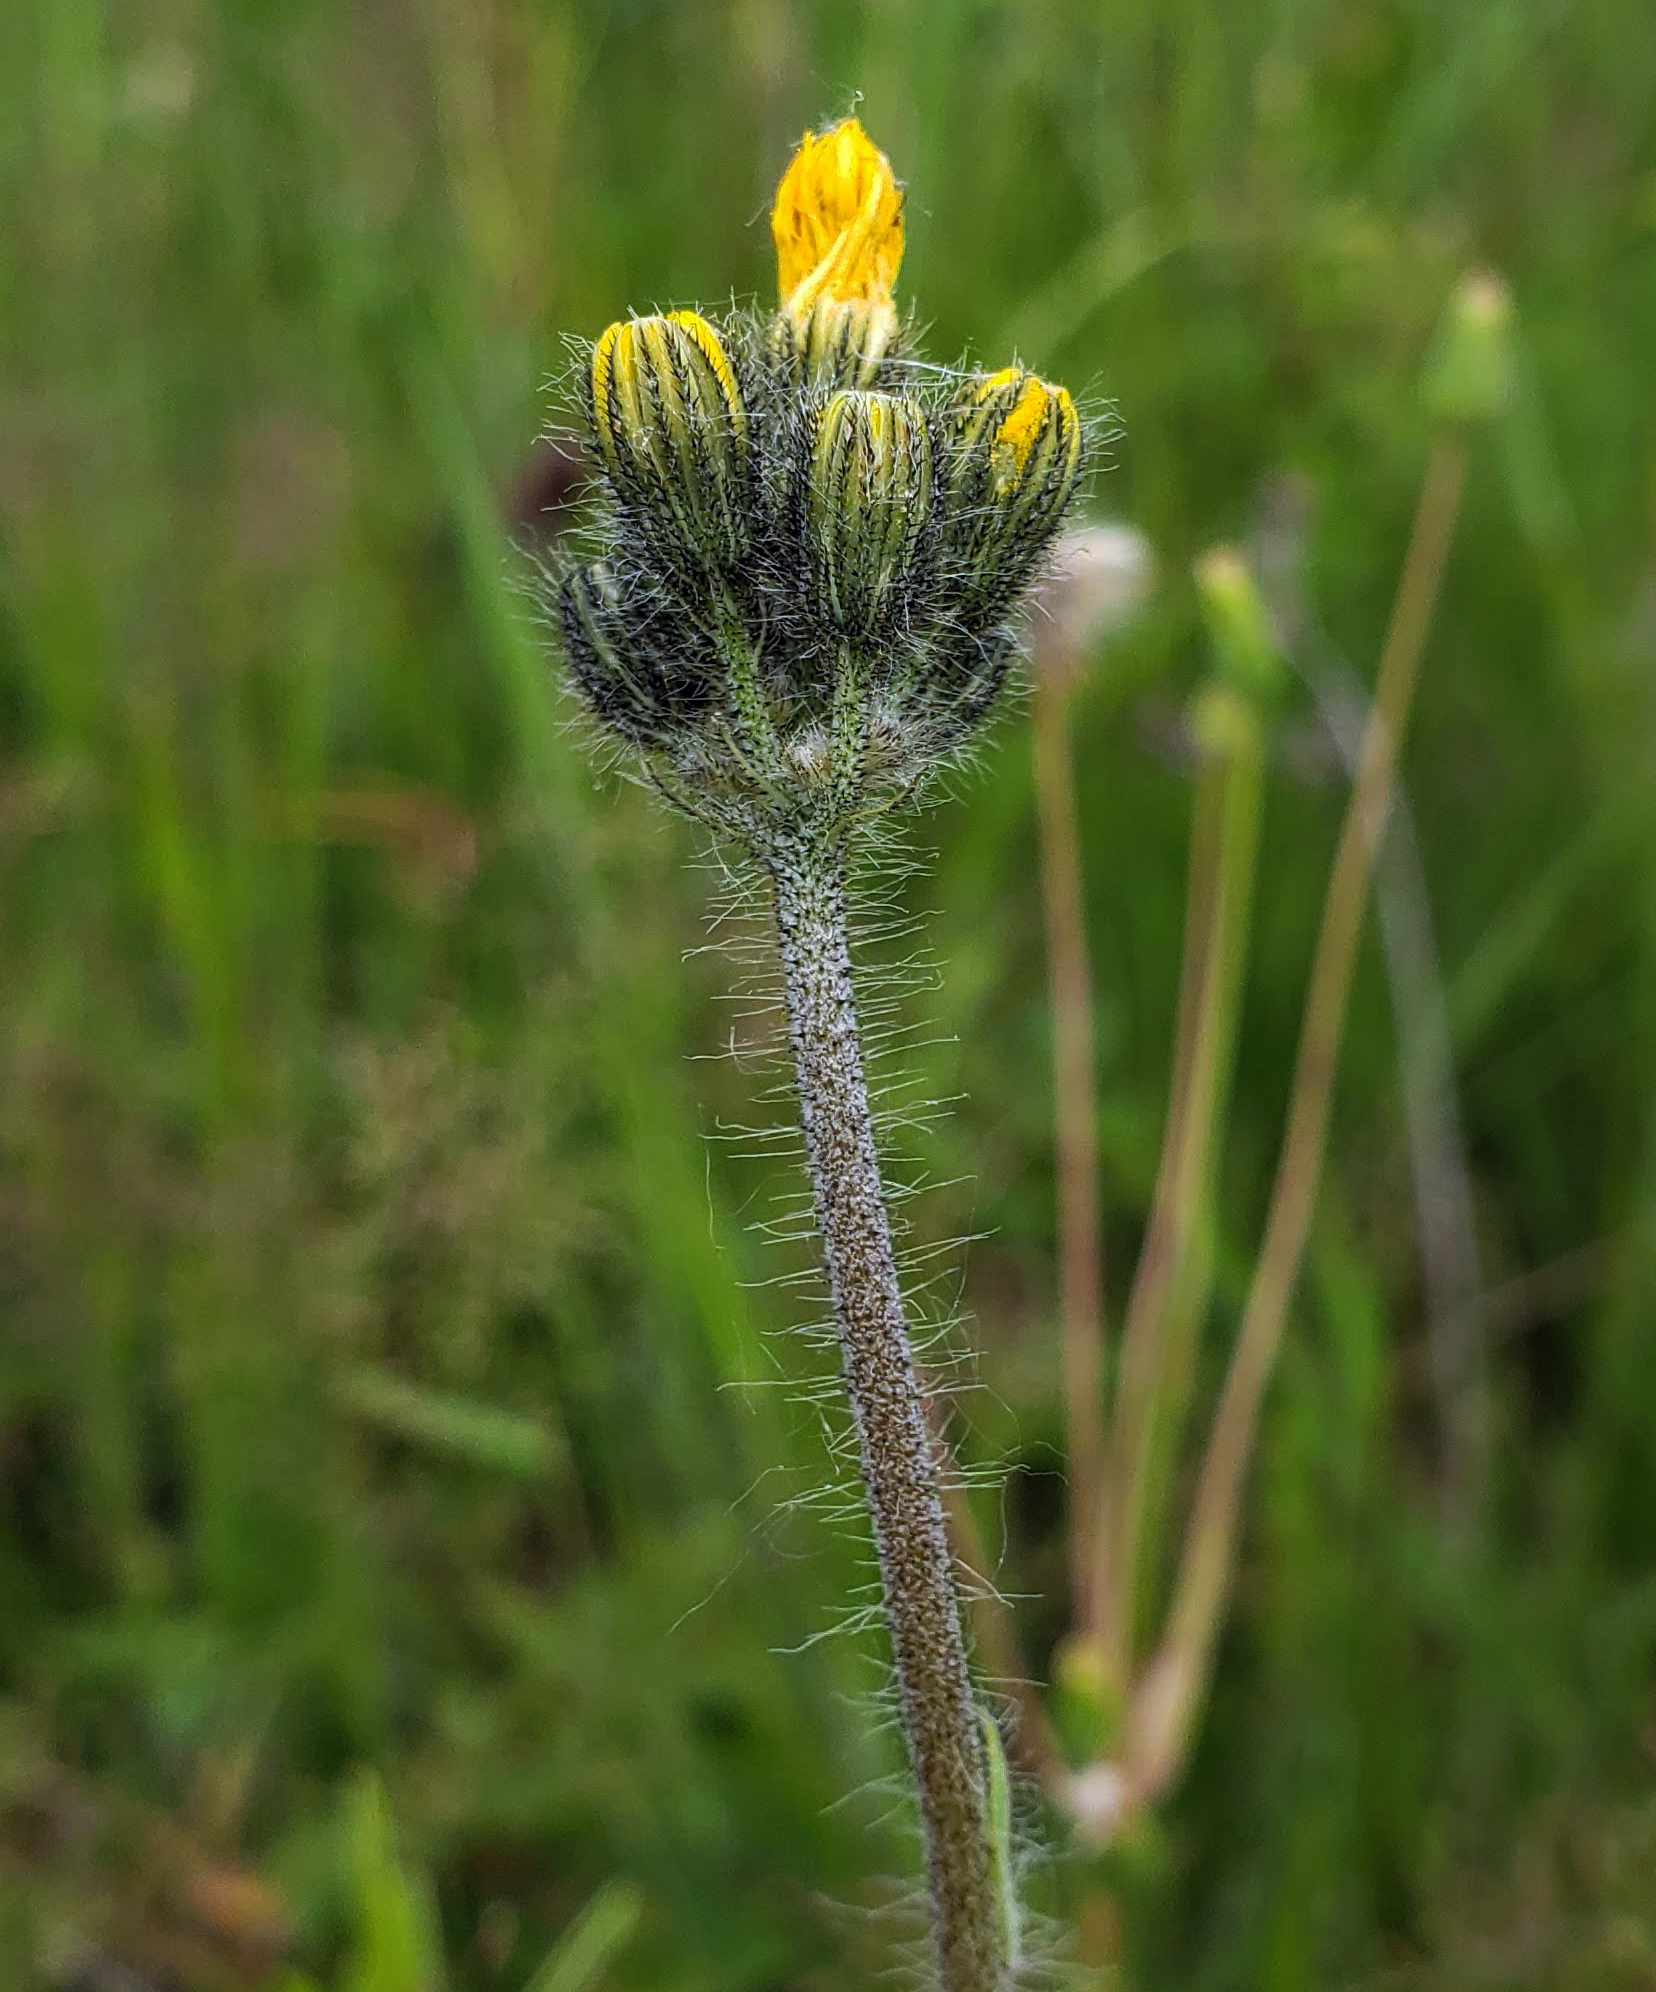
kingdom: Plantae
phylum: Tracheophyta
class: Magnoliopsida
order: Asterales
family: Asteraceae
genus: Pilosella
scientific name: Pilosella caespitosa
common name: Yellow fox-and-cubs
